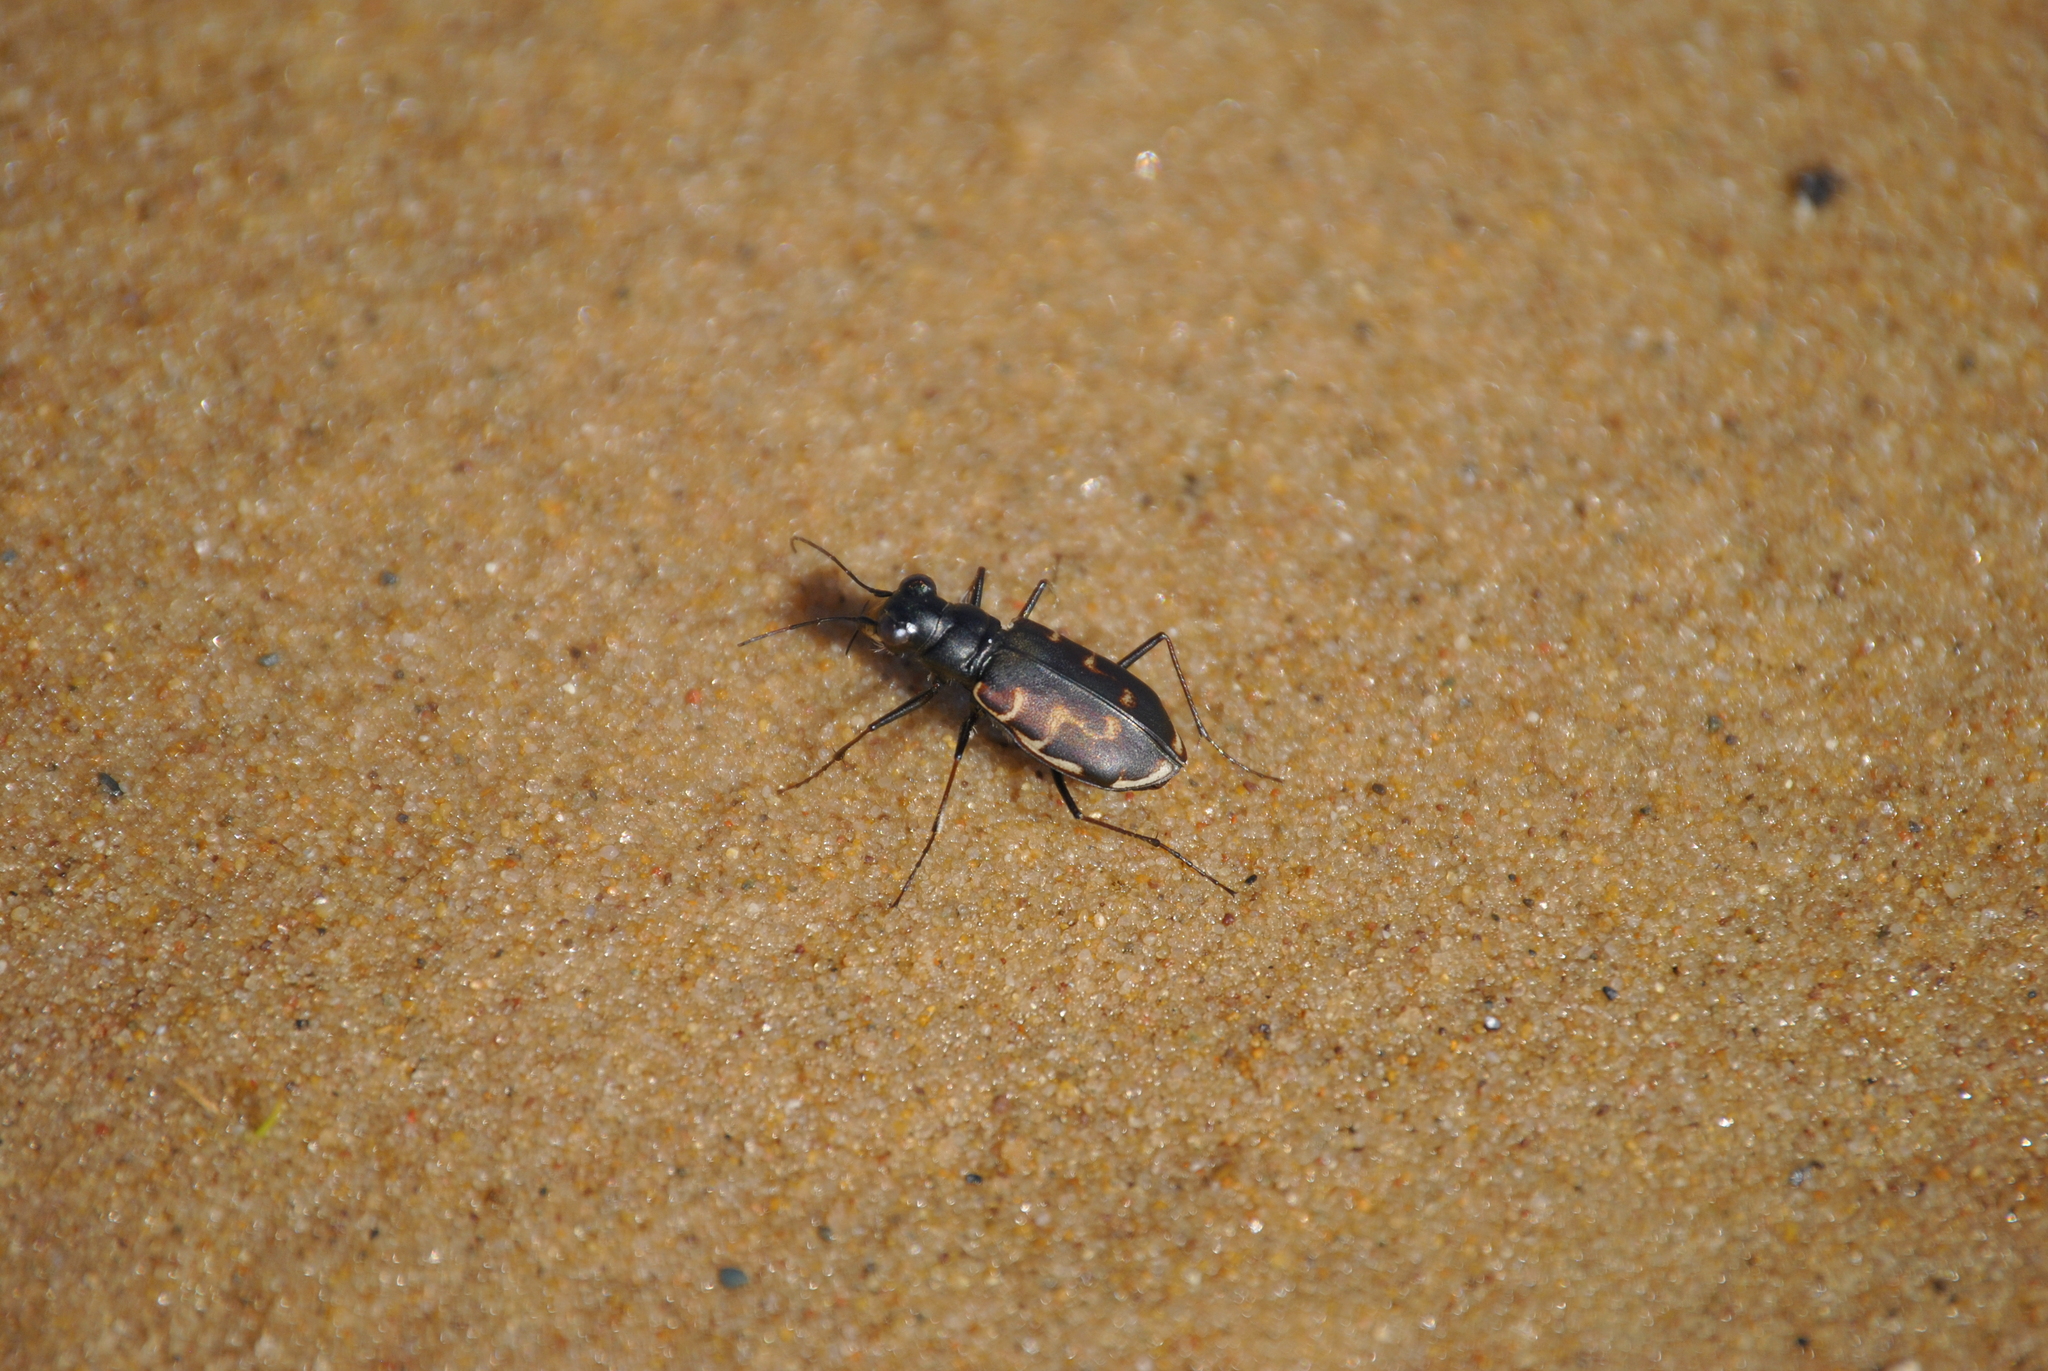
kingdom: Animalia
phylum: Arthropoda
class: Insecta
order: Coleoptera
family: Carabidae
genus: Cicindela
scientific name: Cicindela hirticollis
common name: Hairy-necked tiger beetle
